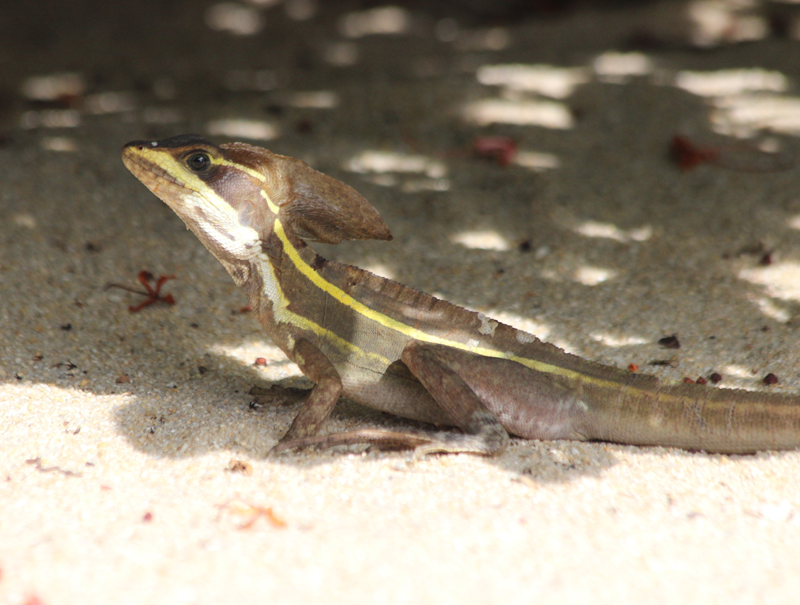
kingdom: Animalia
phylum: Chordata
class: Squamata
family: Corytophanidae
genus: Basiliscus
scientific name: Basiliscus vittatus
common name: Brown basilisk
